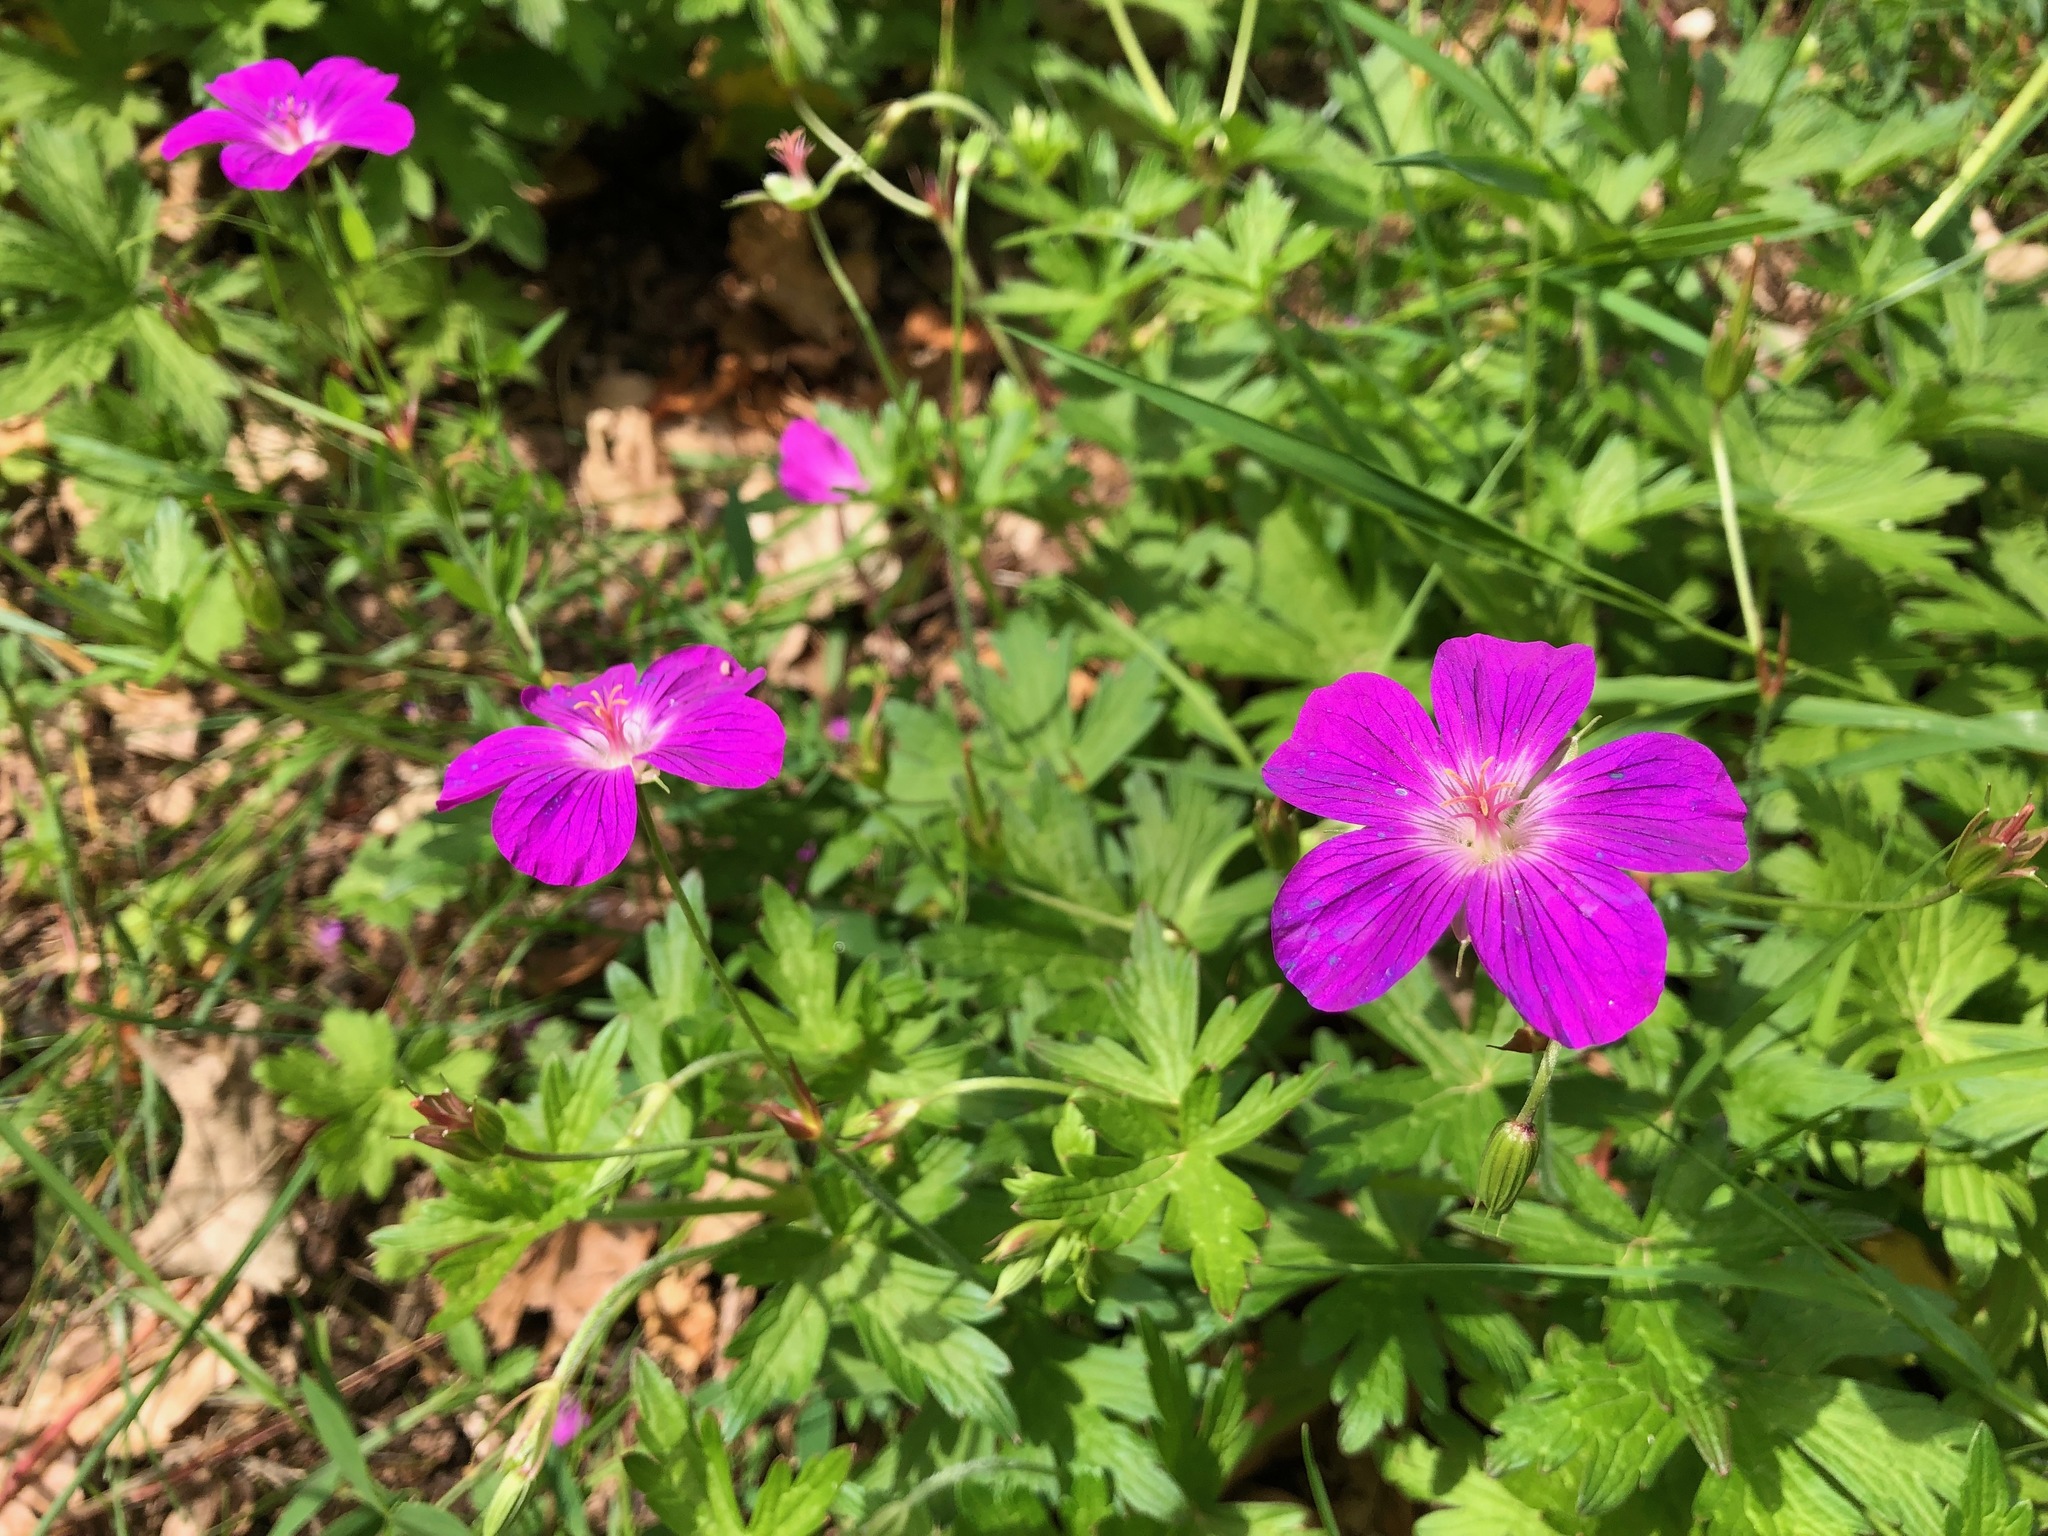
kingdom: Plantae
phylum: Tracheophyta
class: Magnoliopsida
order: Geraniales
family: Geraniaceae
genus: Geranium
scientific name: Geranium palustre
